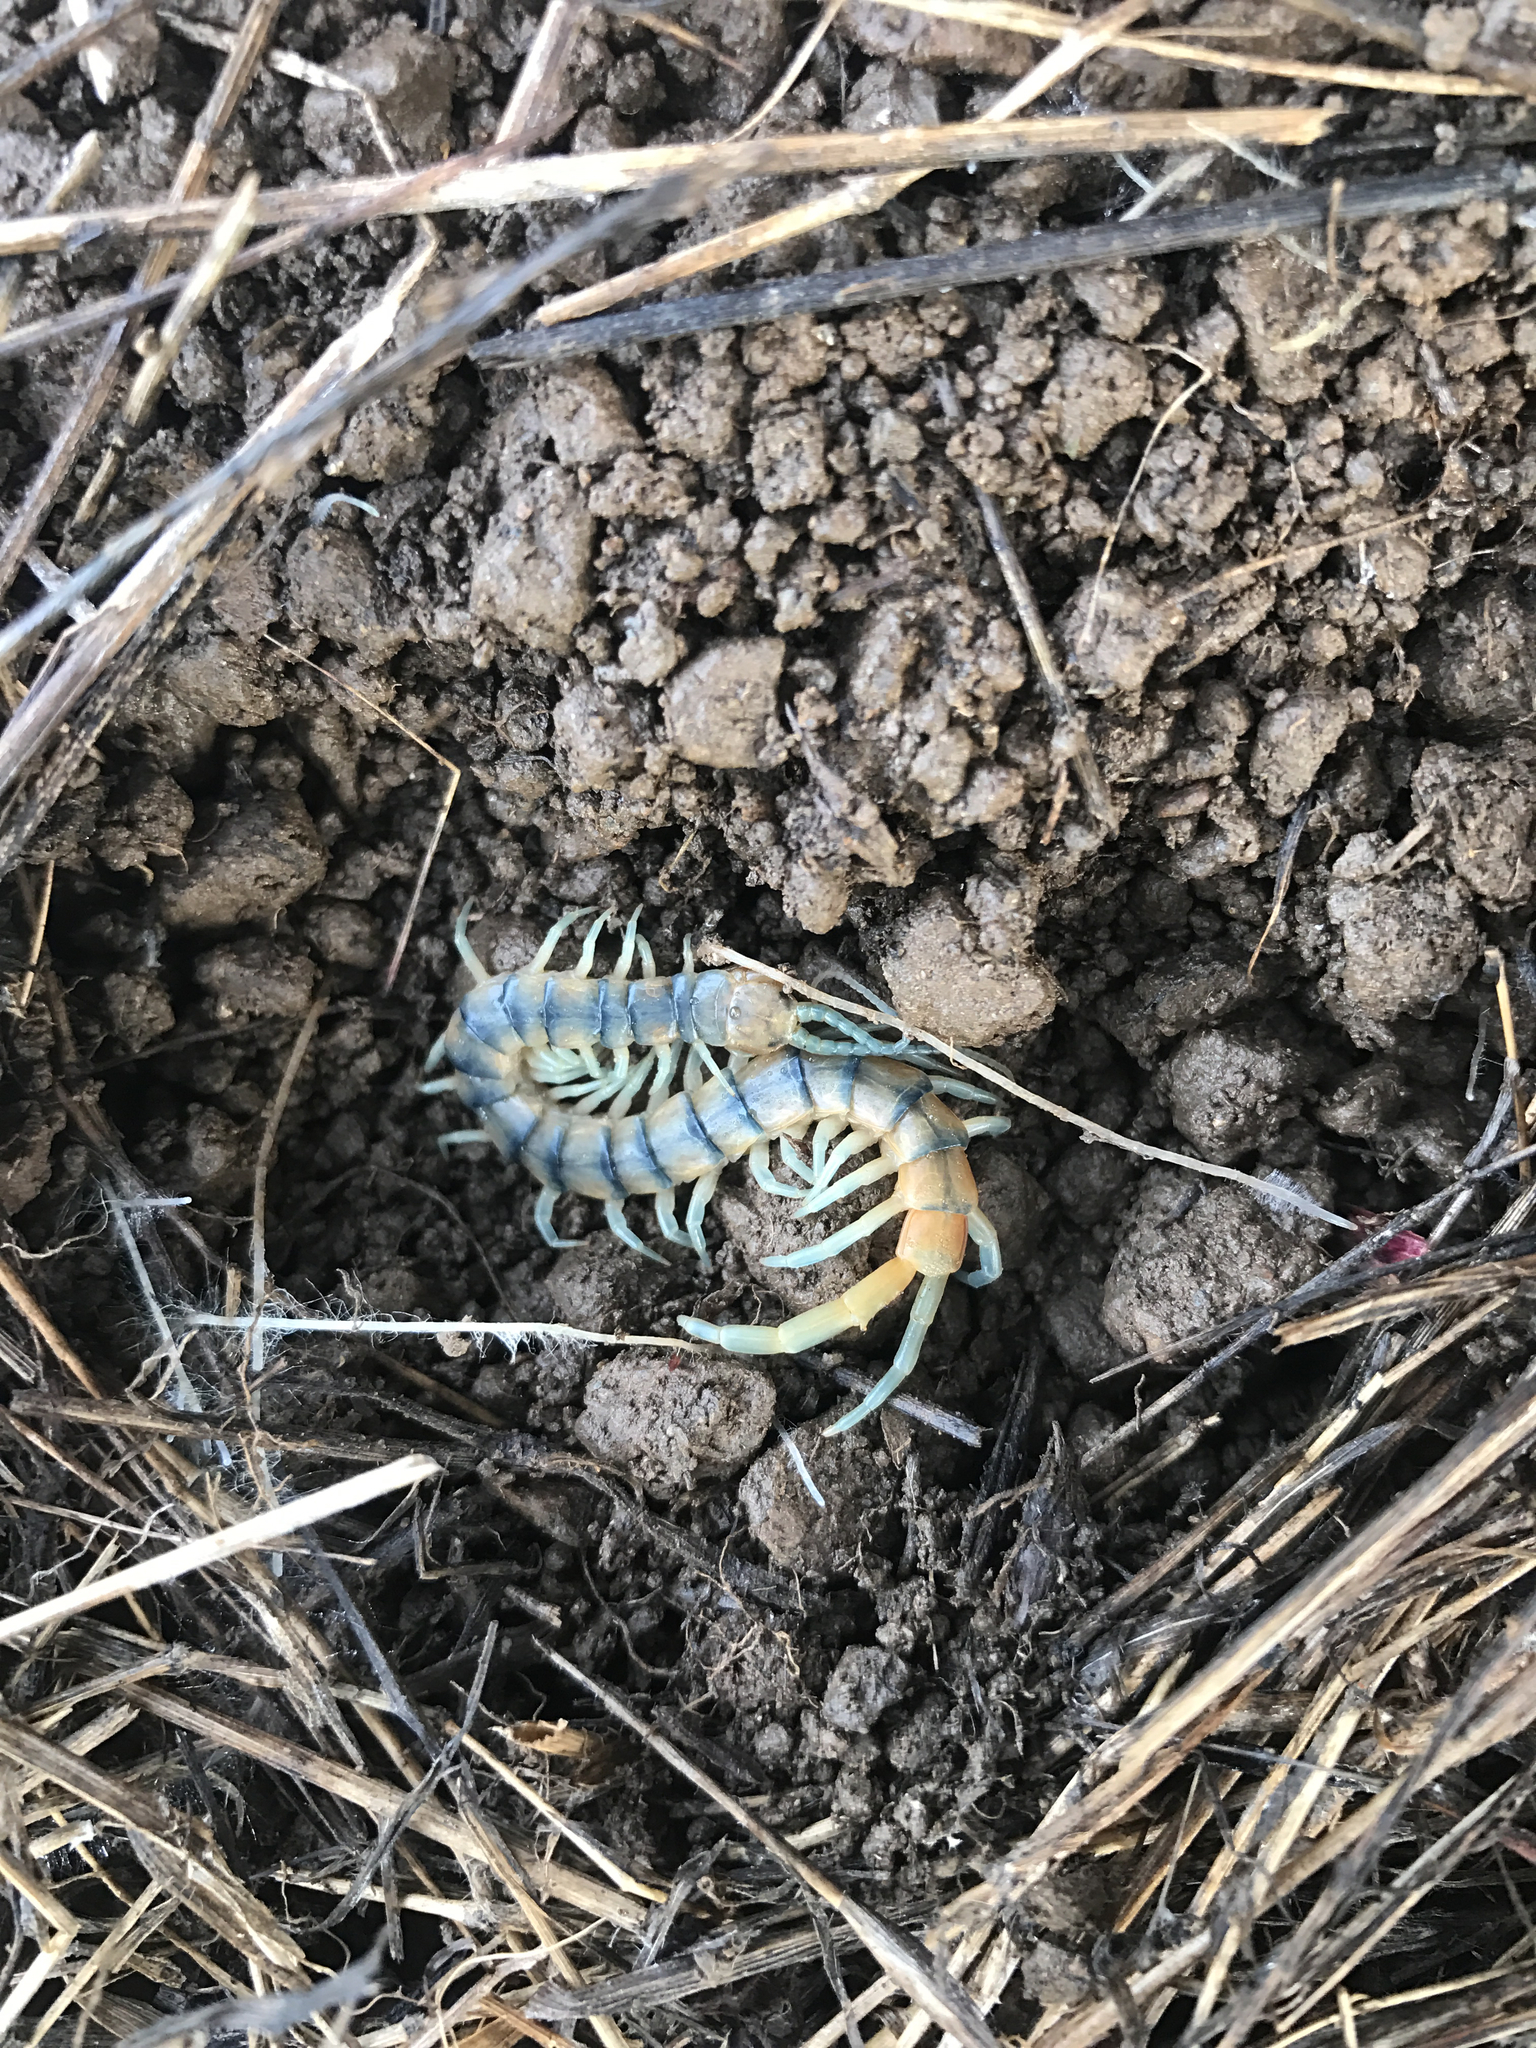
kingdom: Animalia
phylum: Arthropoda
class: Chilopoda
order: Scolopendromorpha
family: Scolopendridae
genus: Scolopendra
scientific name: Scolopendra polymorpha
